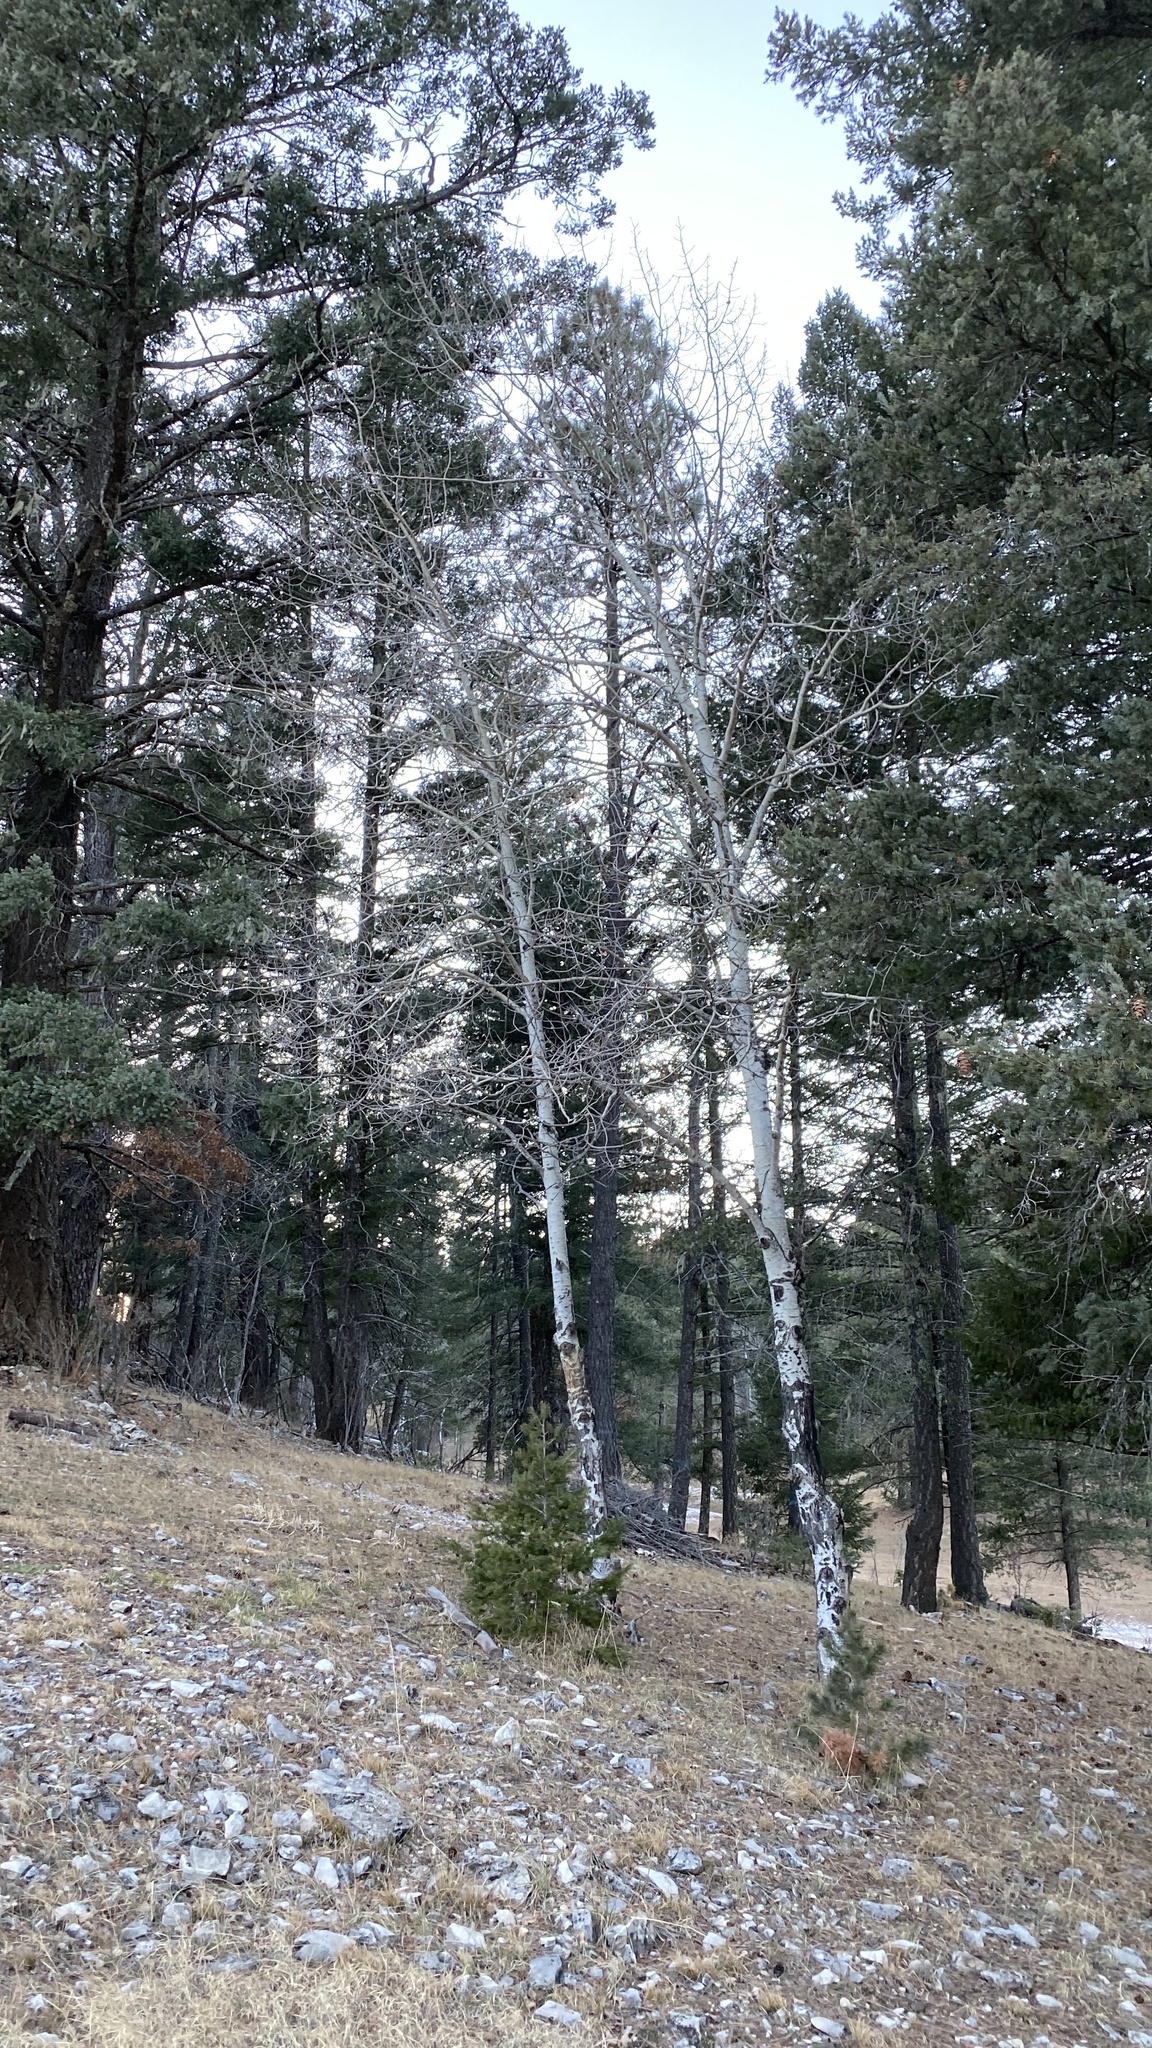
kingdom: Plantae
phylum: Tracheophyta
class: Magnoliopsida
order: Malpighiales
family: Salicaceae
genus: Populus
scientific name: Populus tremuloides
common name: Quaking aspen
